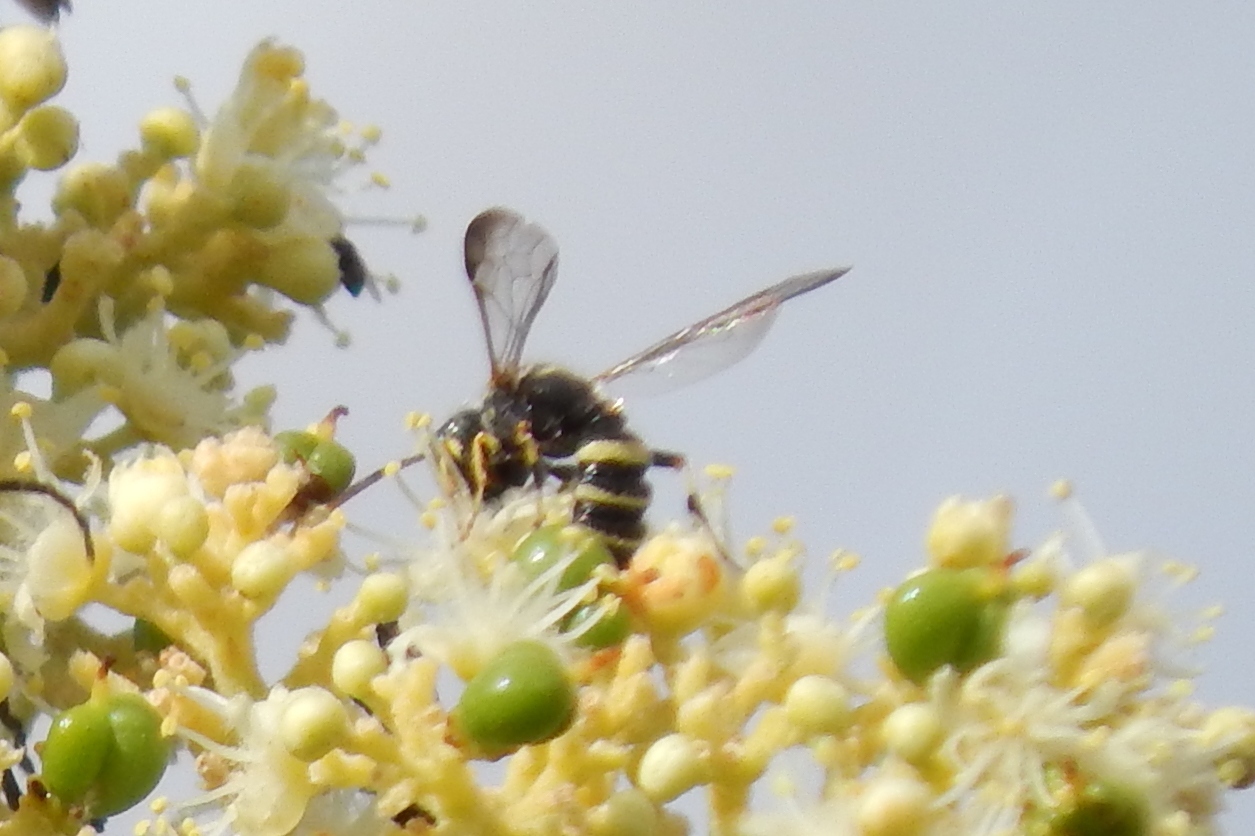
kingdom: Animalia
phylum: Arthropoda
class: Insecta
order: Hymenoptera
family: Crabronidae
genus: Cerceris
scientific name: Cerceris
